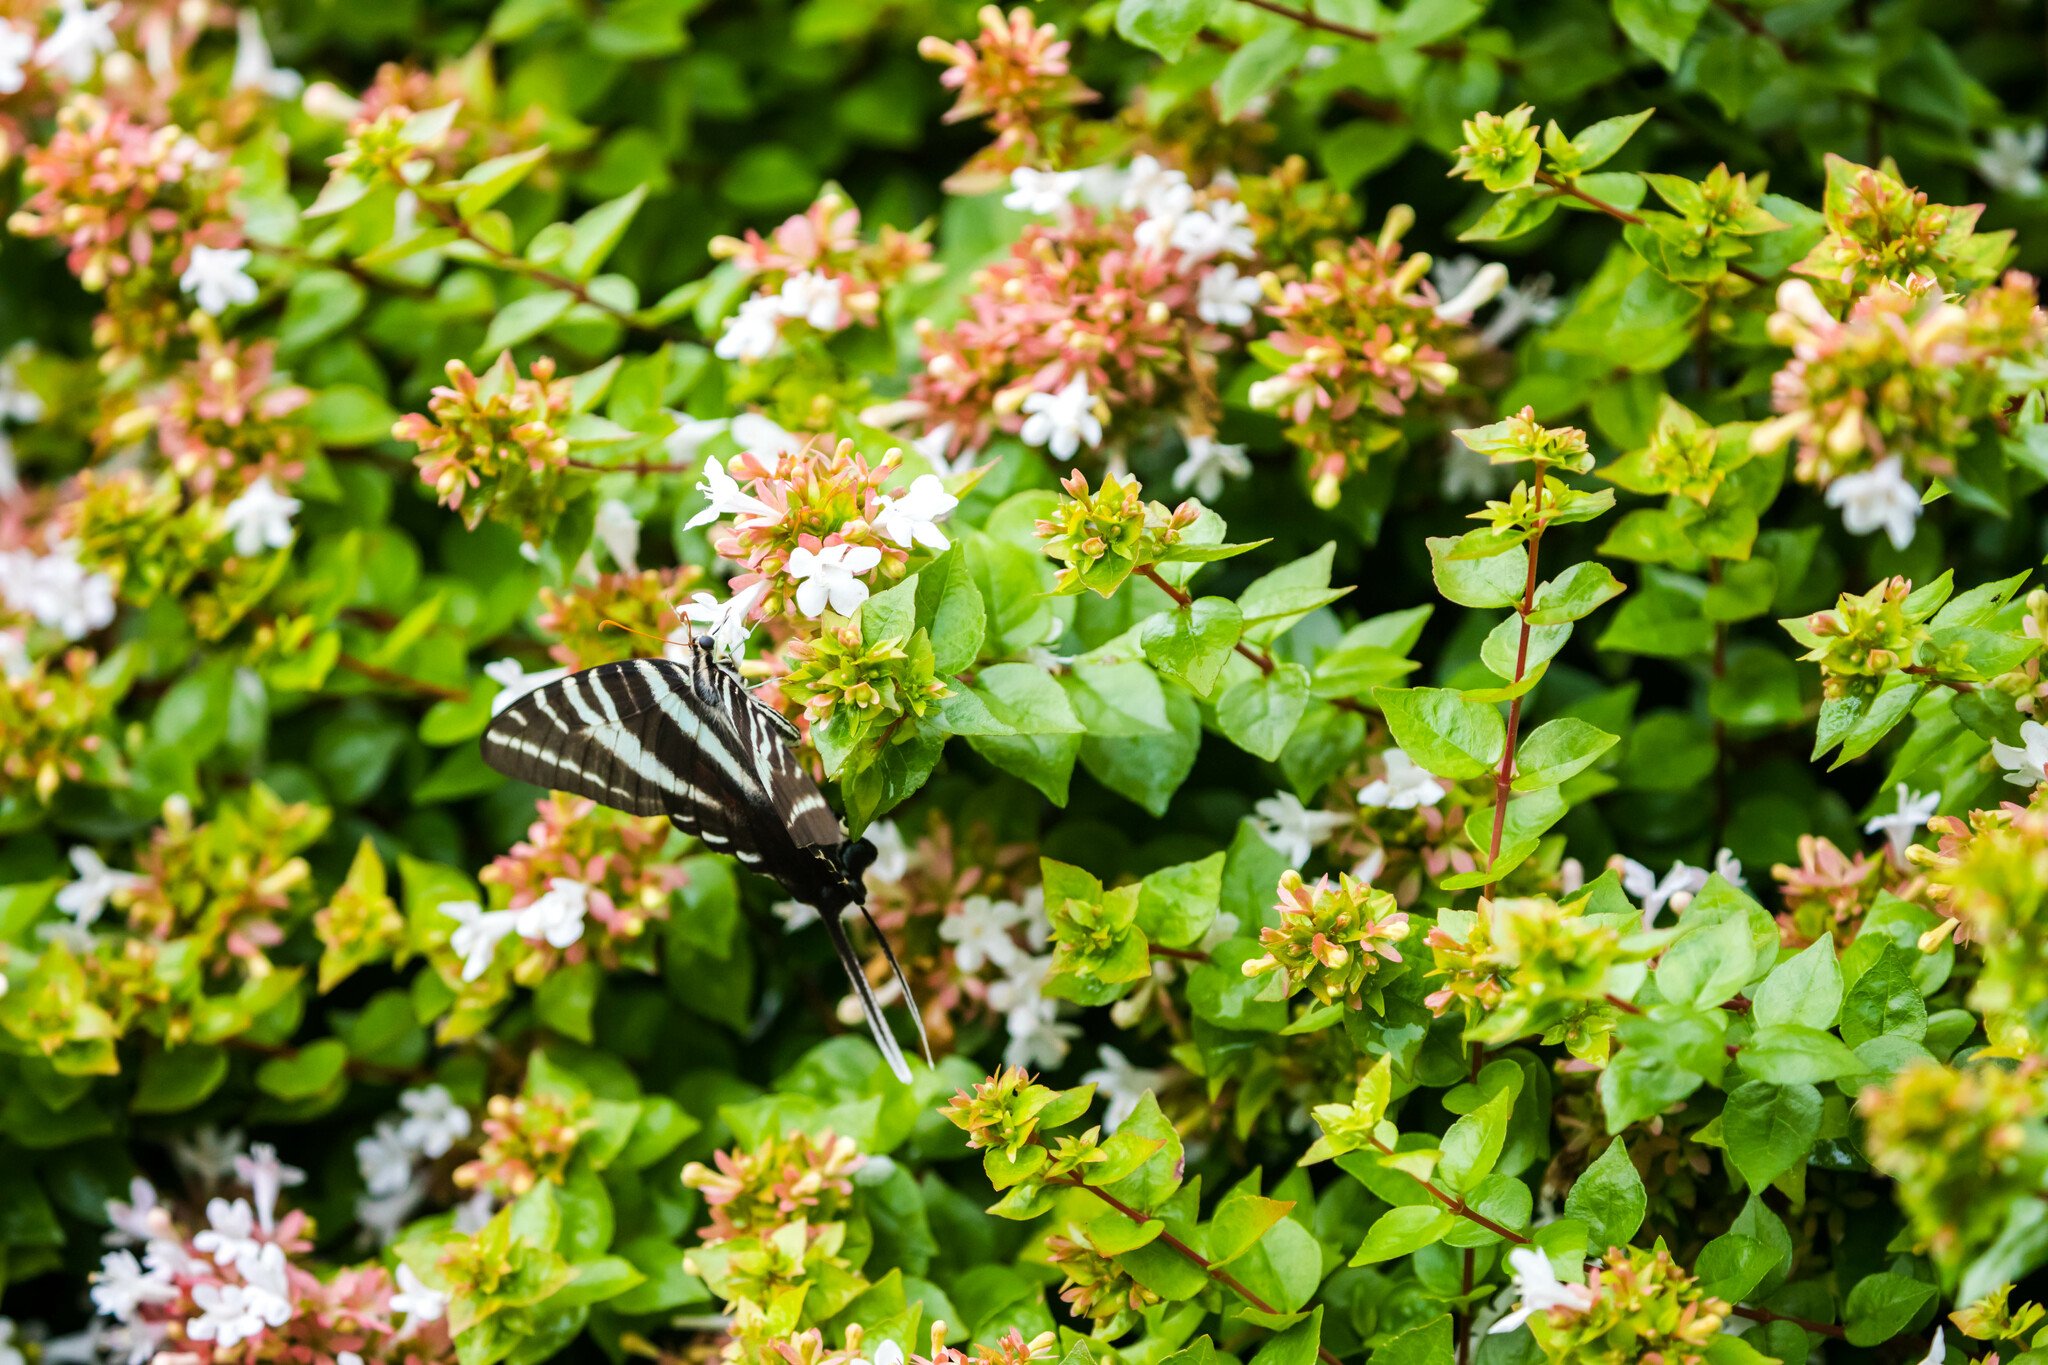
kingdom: Animalia
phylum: Arthropoda
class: Insecta
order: Lepidoptera
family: Papilionidae
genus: Protographium
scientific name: Protographium marcellus
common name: Zebra swallowtail
